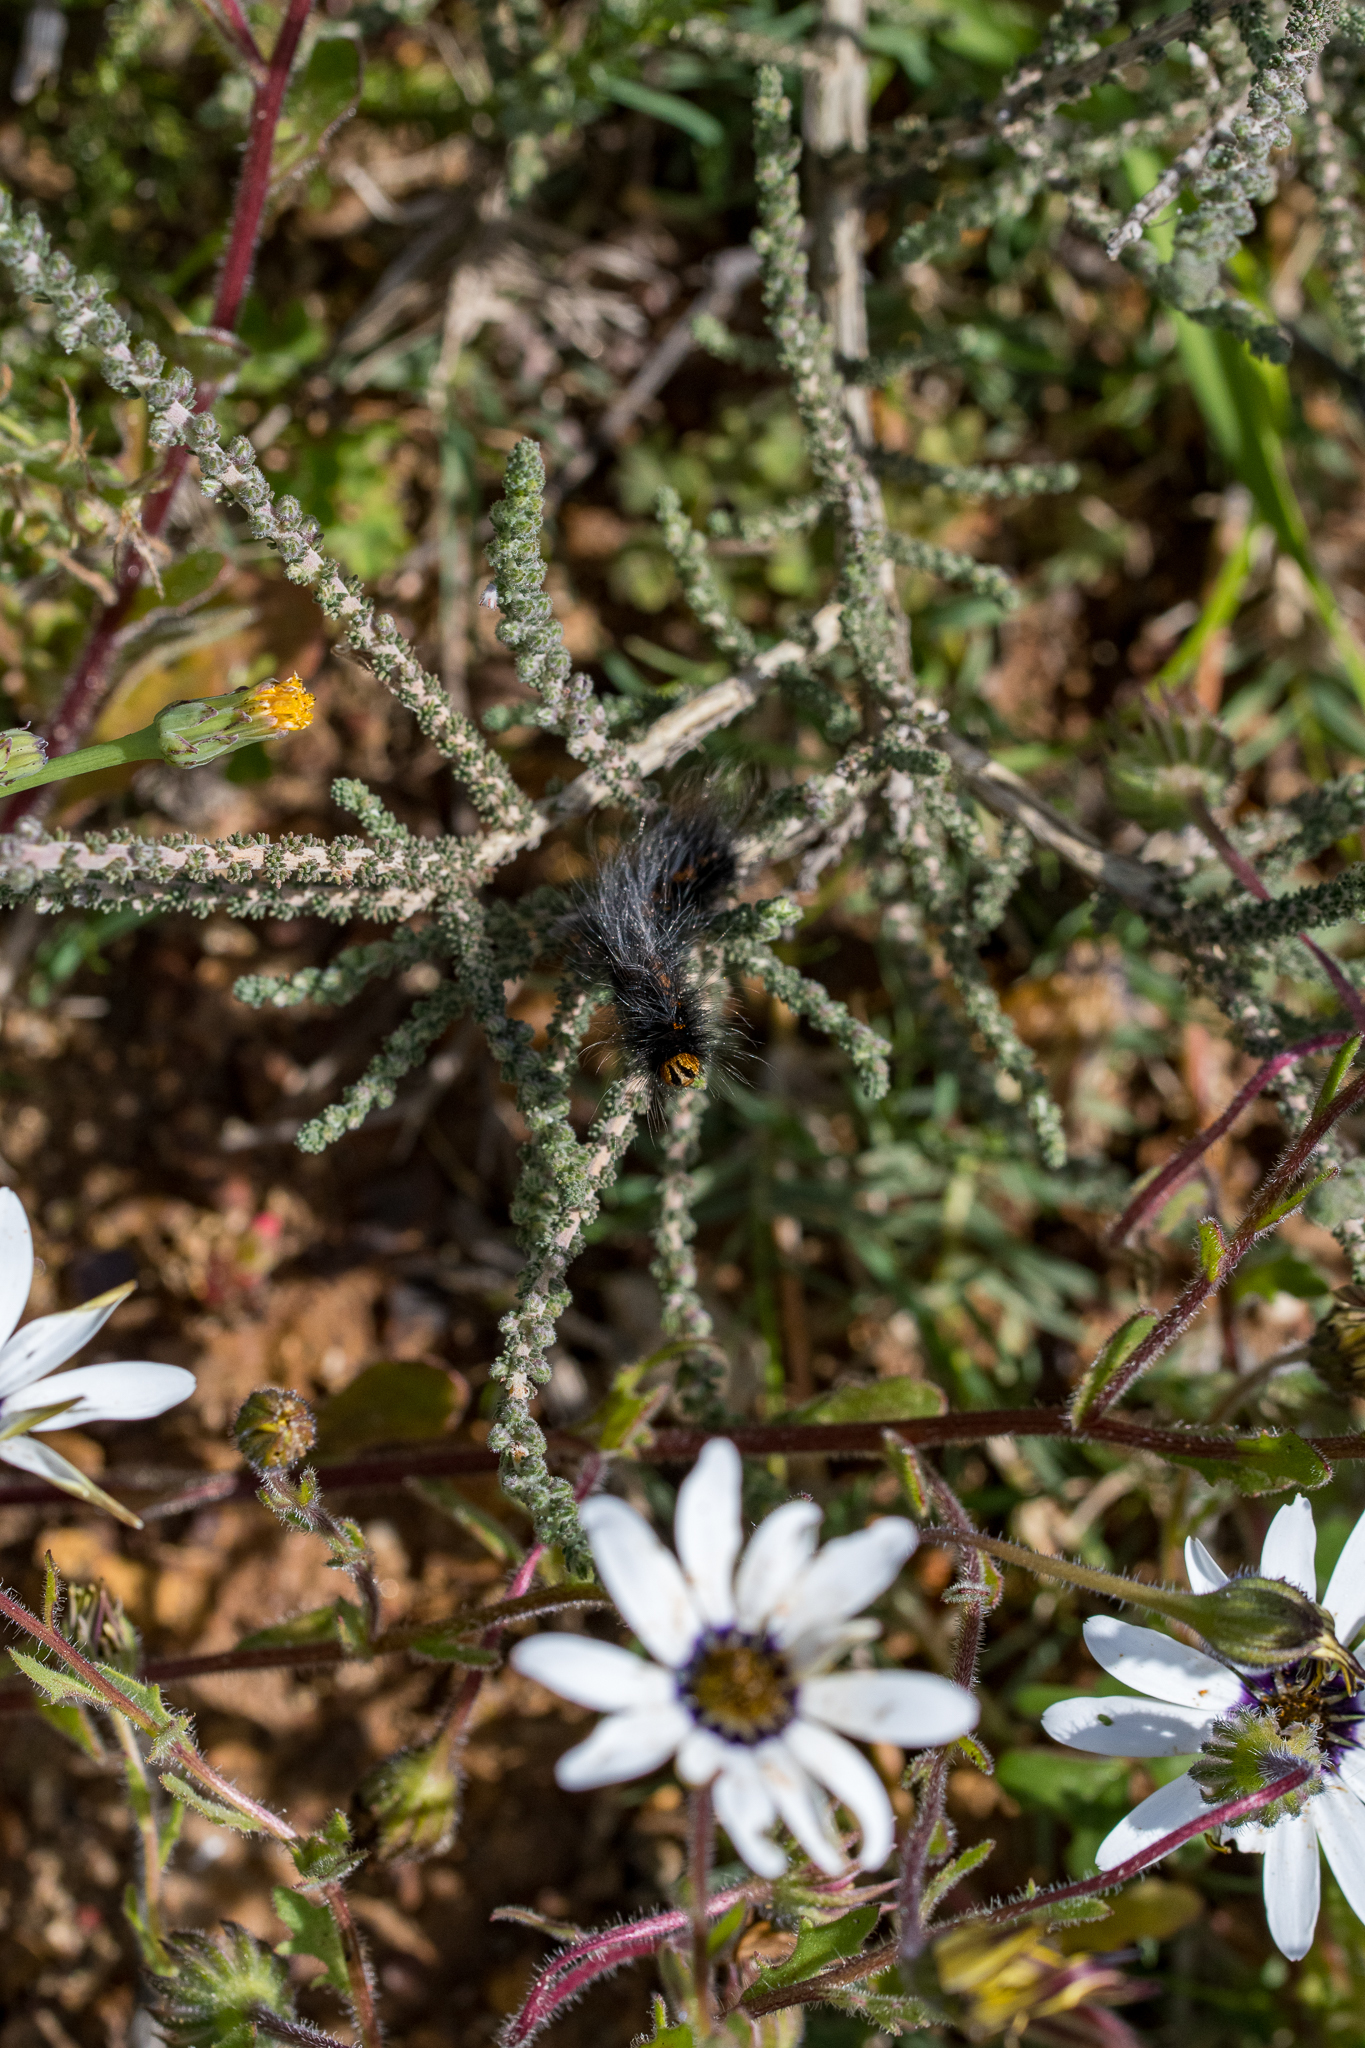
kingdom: Animalia
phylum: Arthropoda
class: Insecta
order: Lepidoptera
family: Lasiocampidae
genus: Mesocelis
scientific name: Mesocelis monticola
